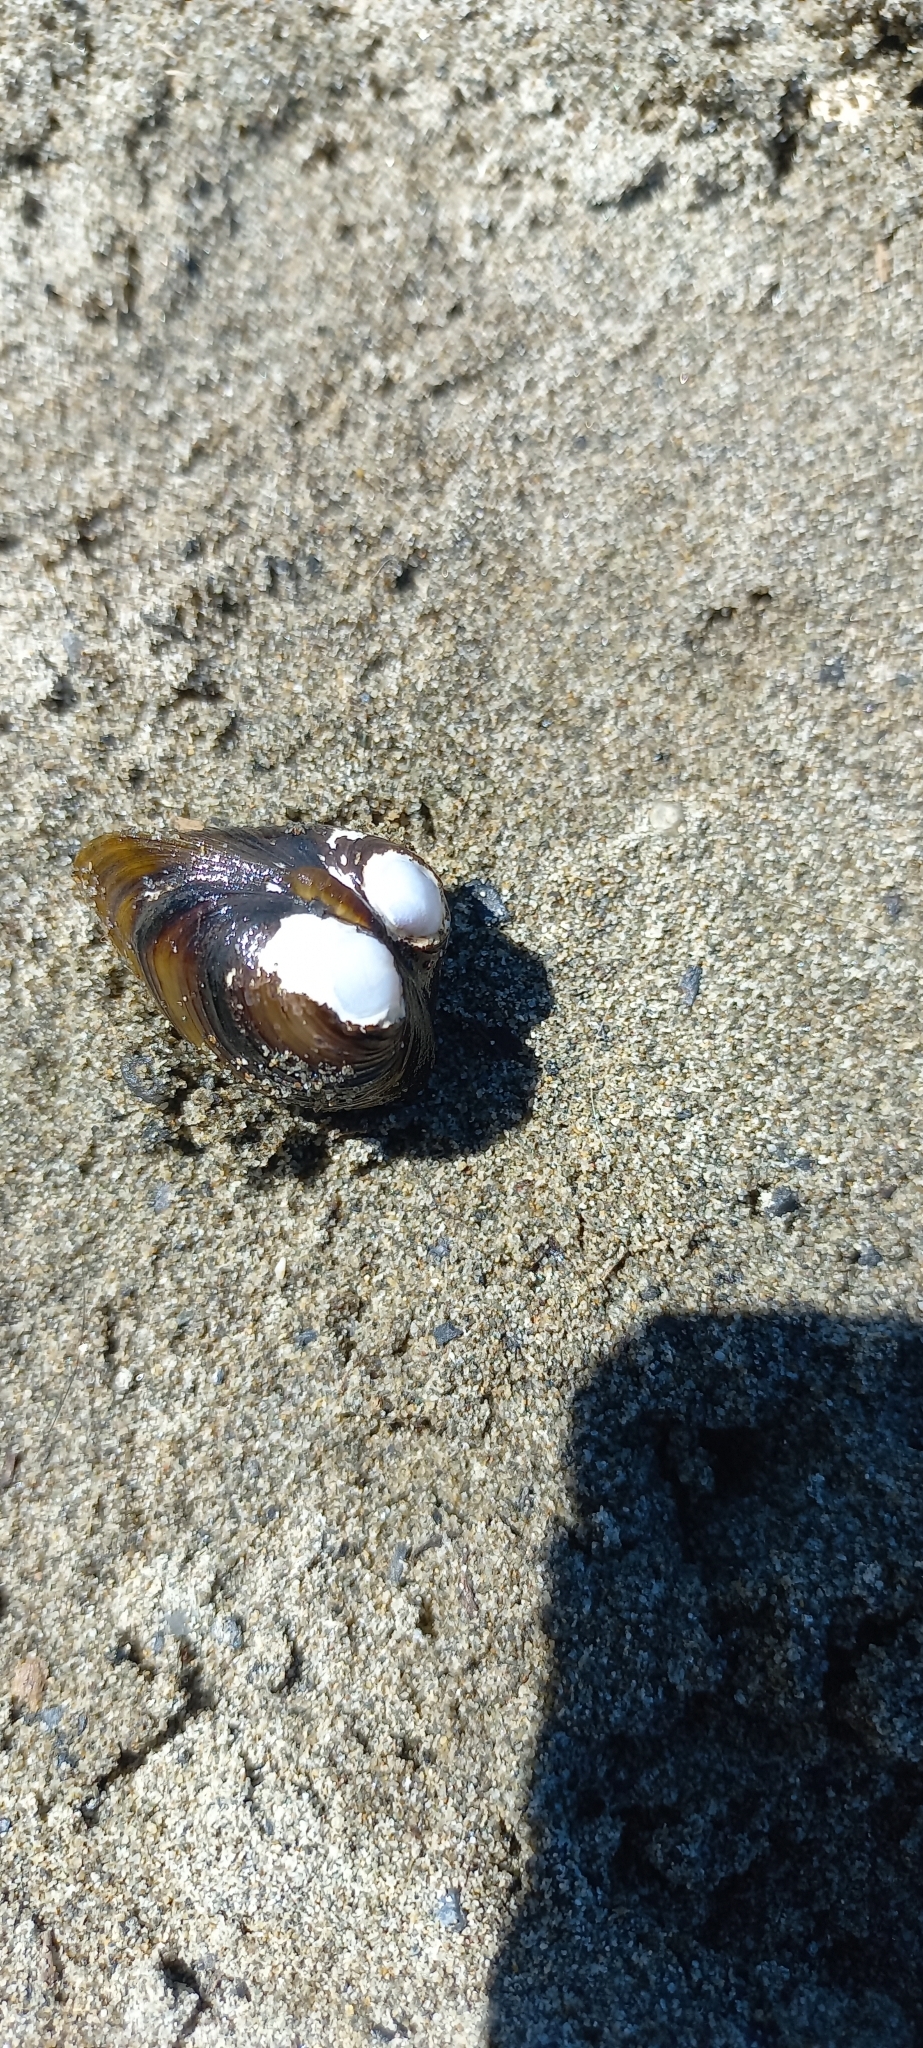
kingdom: Animalia
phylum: Mollusca
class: Bivalvia
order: Venerida
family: Cyrenidae
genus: Corbicula
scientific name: Corbicula fluminea
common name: Asian clam
